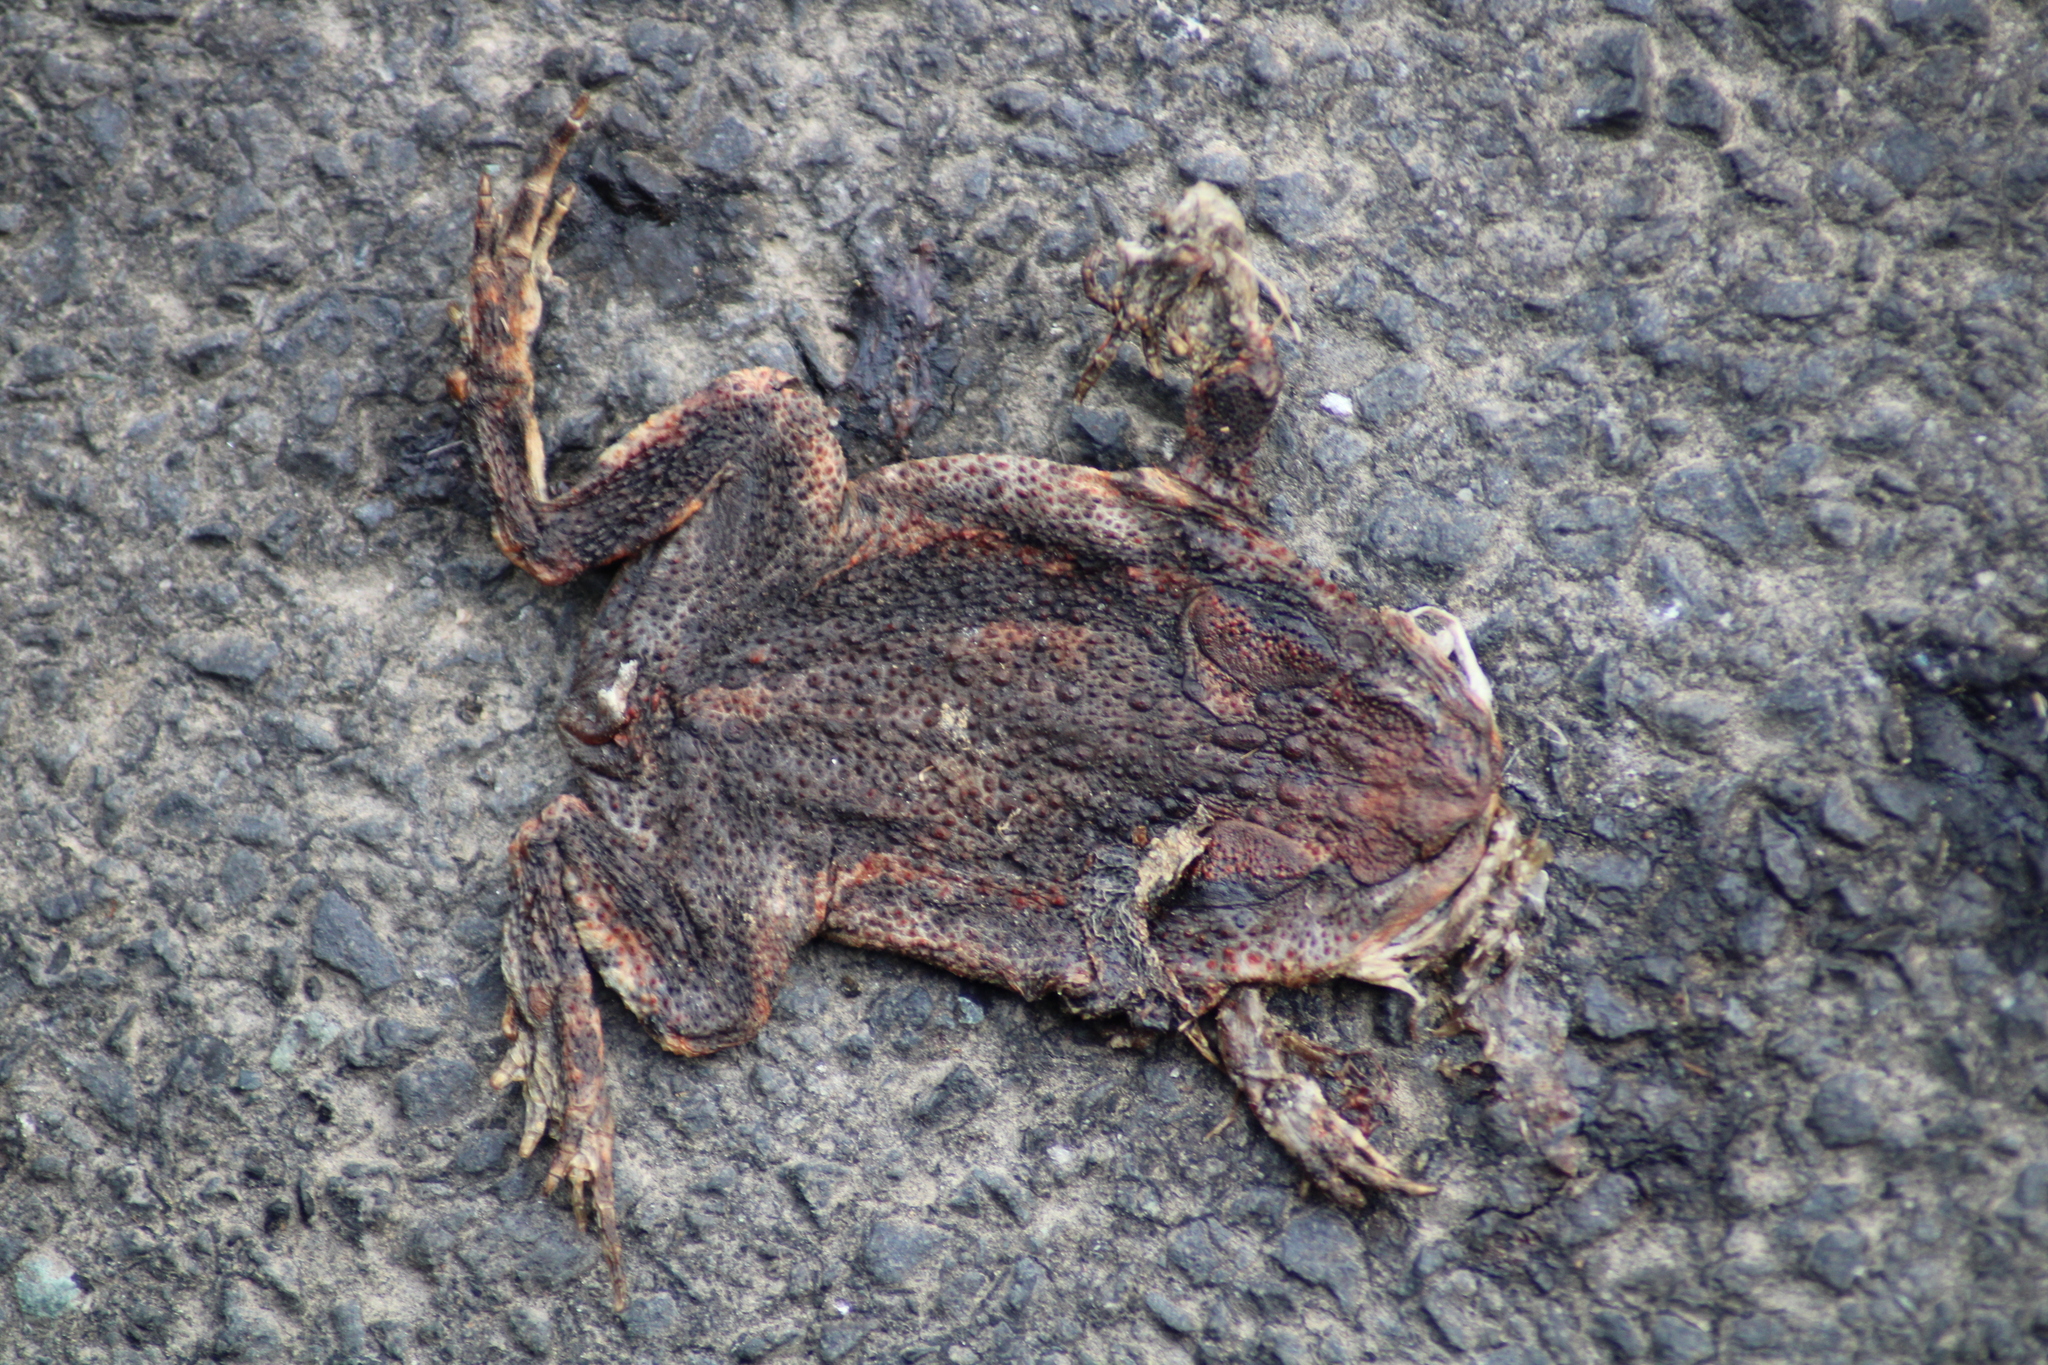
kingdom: Animalia
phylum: Chordata
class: Amphibia
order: Anura
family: Bufonidae
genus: Bufo
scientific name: Bufo bufo
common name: Common toad
